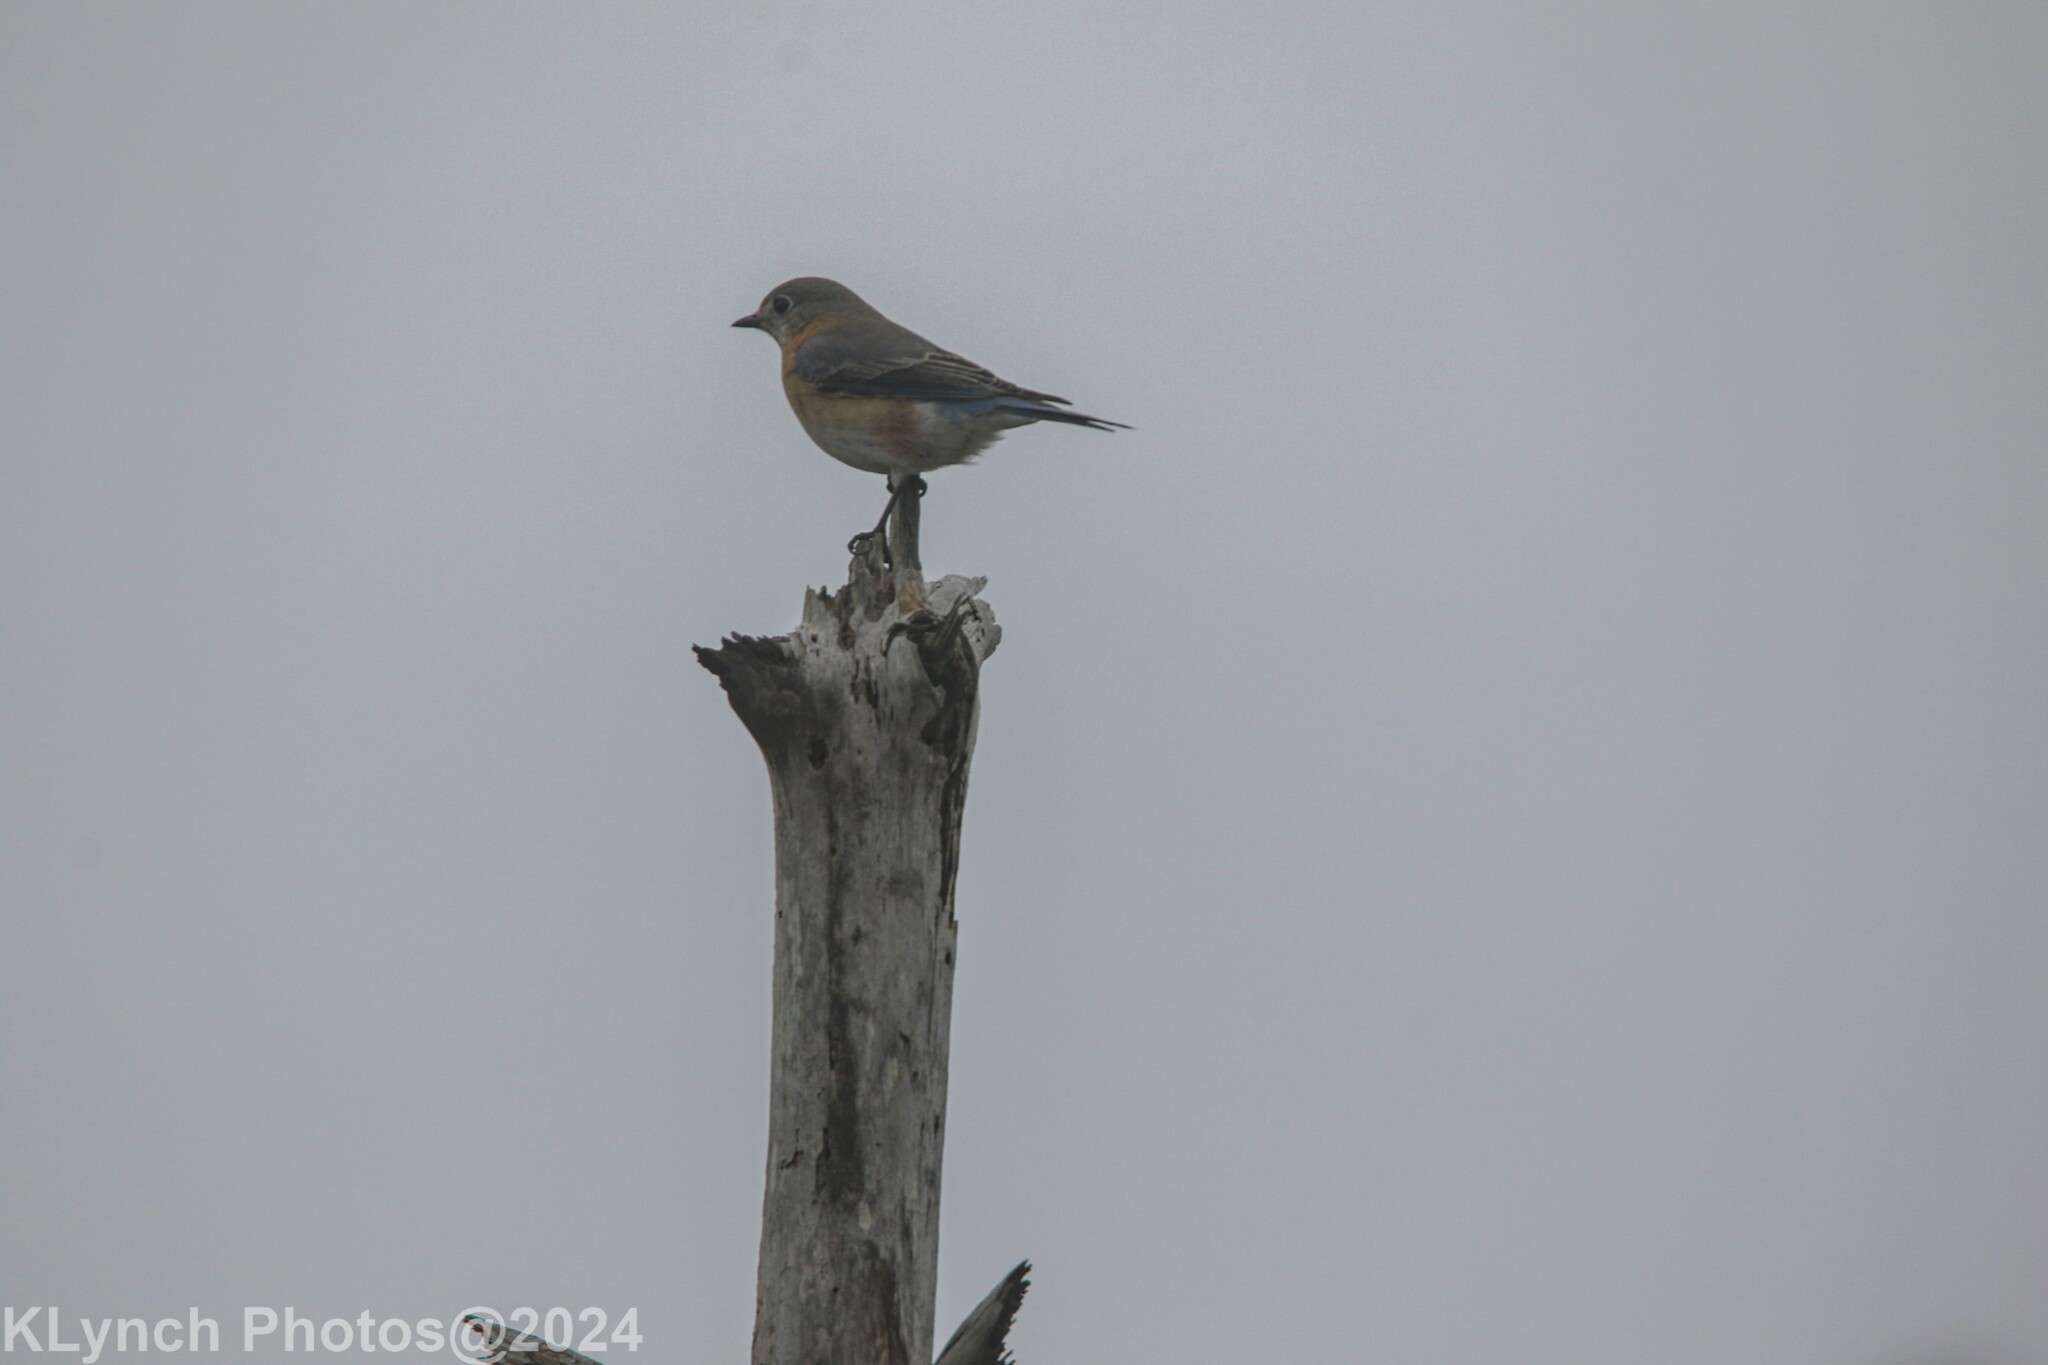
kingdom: Animalia
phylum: Chordata
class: Aves
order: Passeriformes
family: Turdidae
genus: Sialia
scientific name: Sialia sialis
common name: Eastern bluebird
